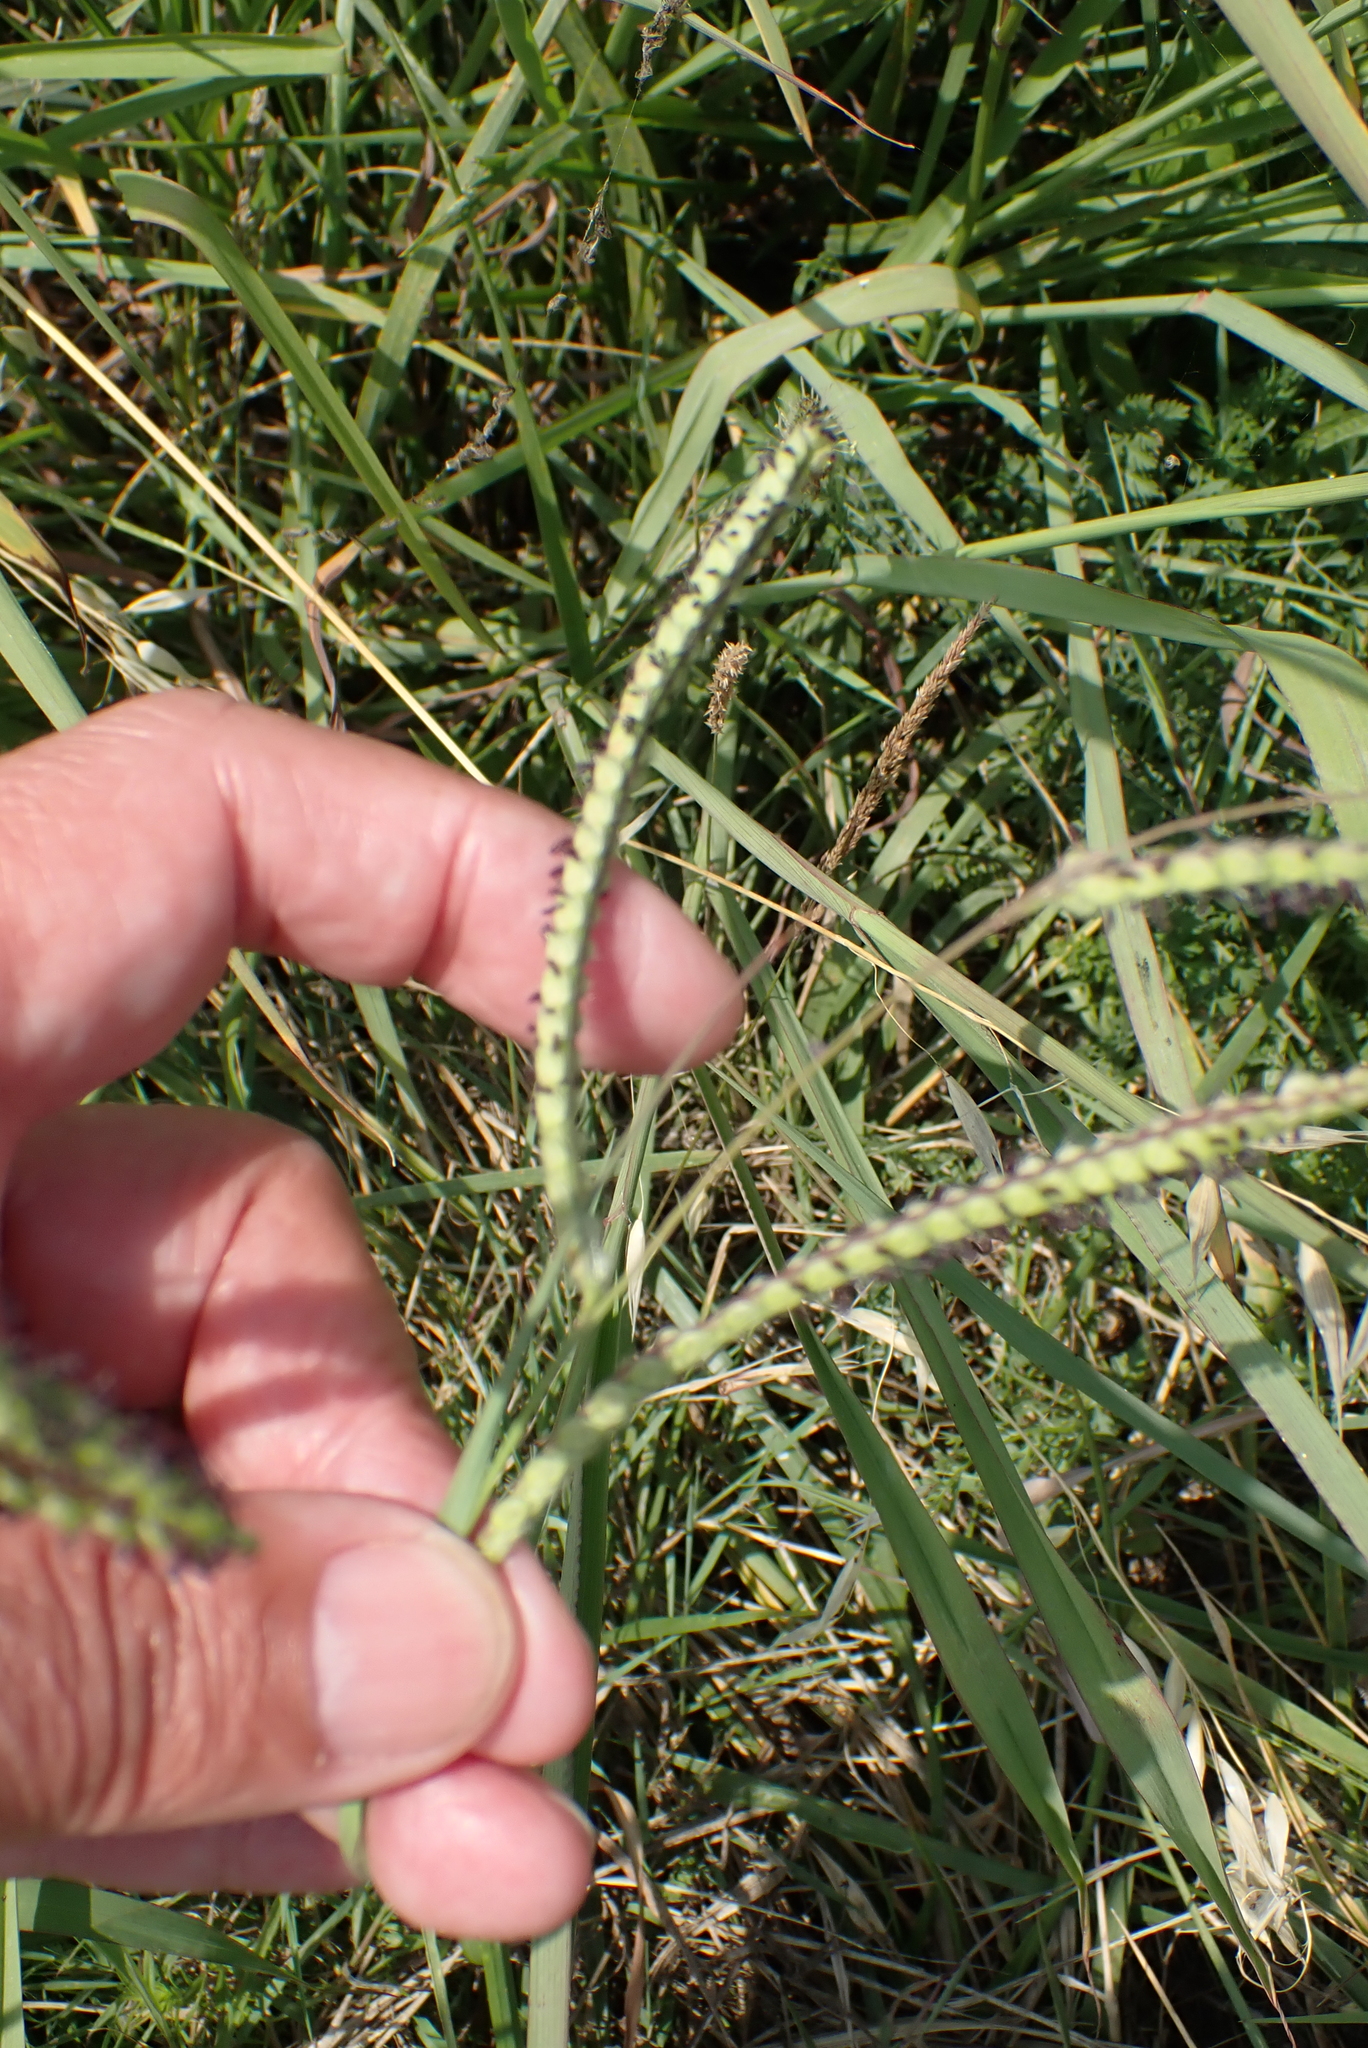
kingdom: Plantae
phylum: Tracheophyta
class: Liliopsida
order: Poales
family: Poaceae
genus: Paspalum
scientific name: Paspalum dilatatum
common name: Dallisgrass
